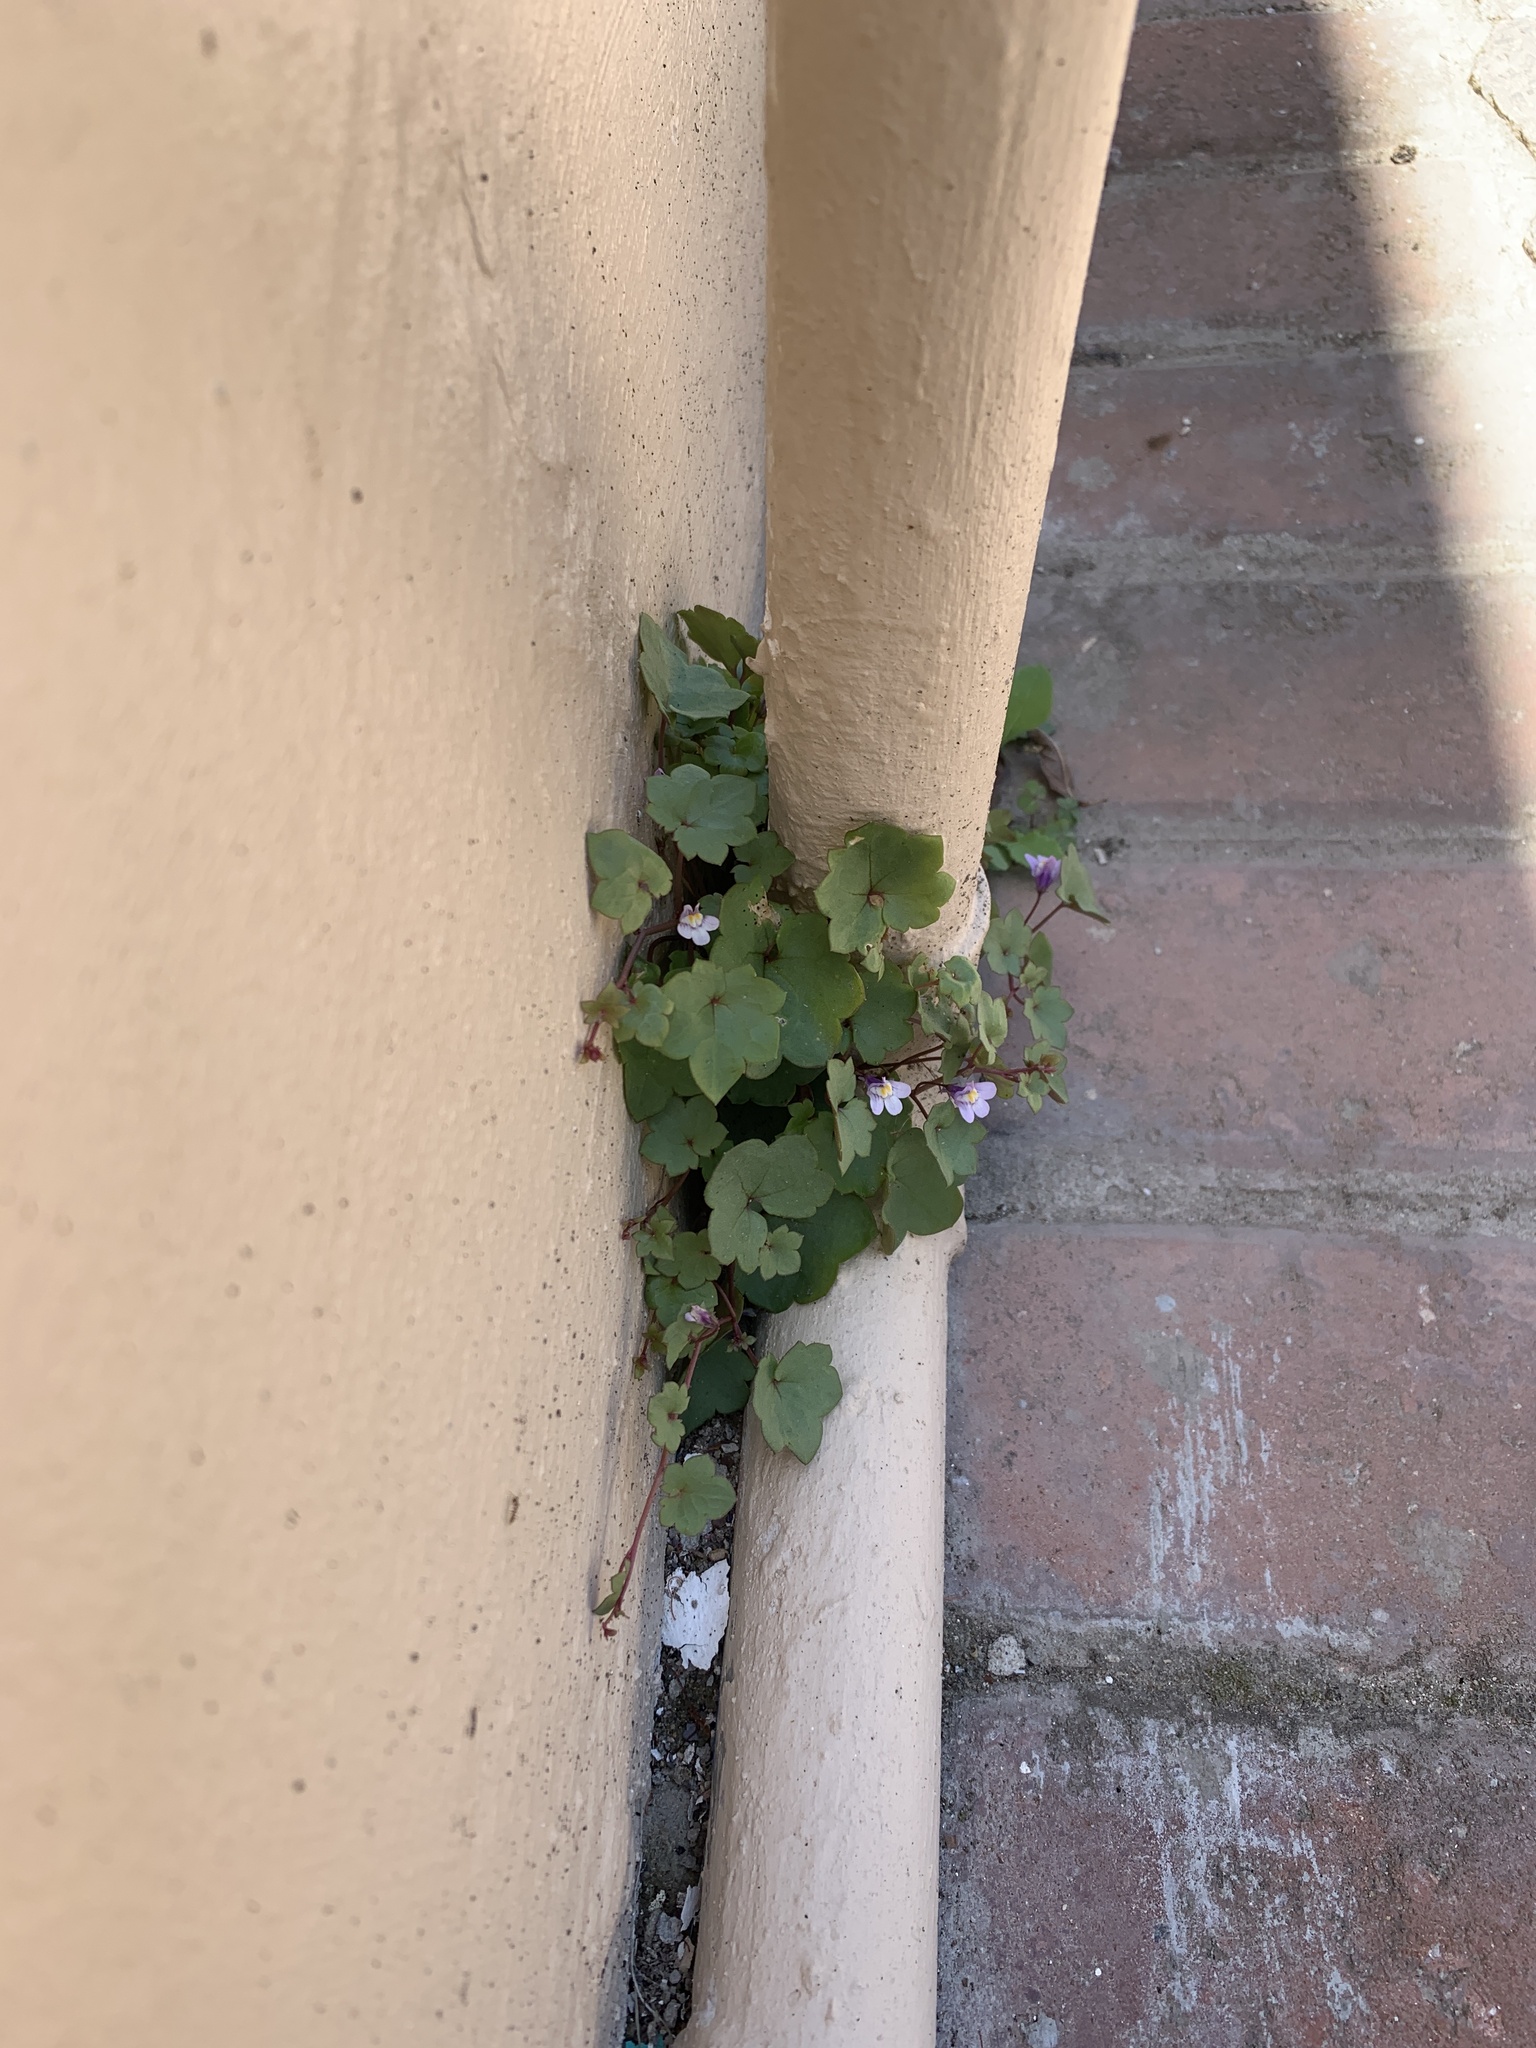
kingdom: Plantae
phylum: Tracheophyta
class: Magnoliopsida
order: Lamiales
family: Plantaginaceae
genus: Cymbalaria
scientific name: Cymbalaria muralis
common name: Ivy-leaved toadflax
